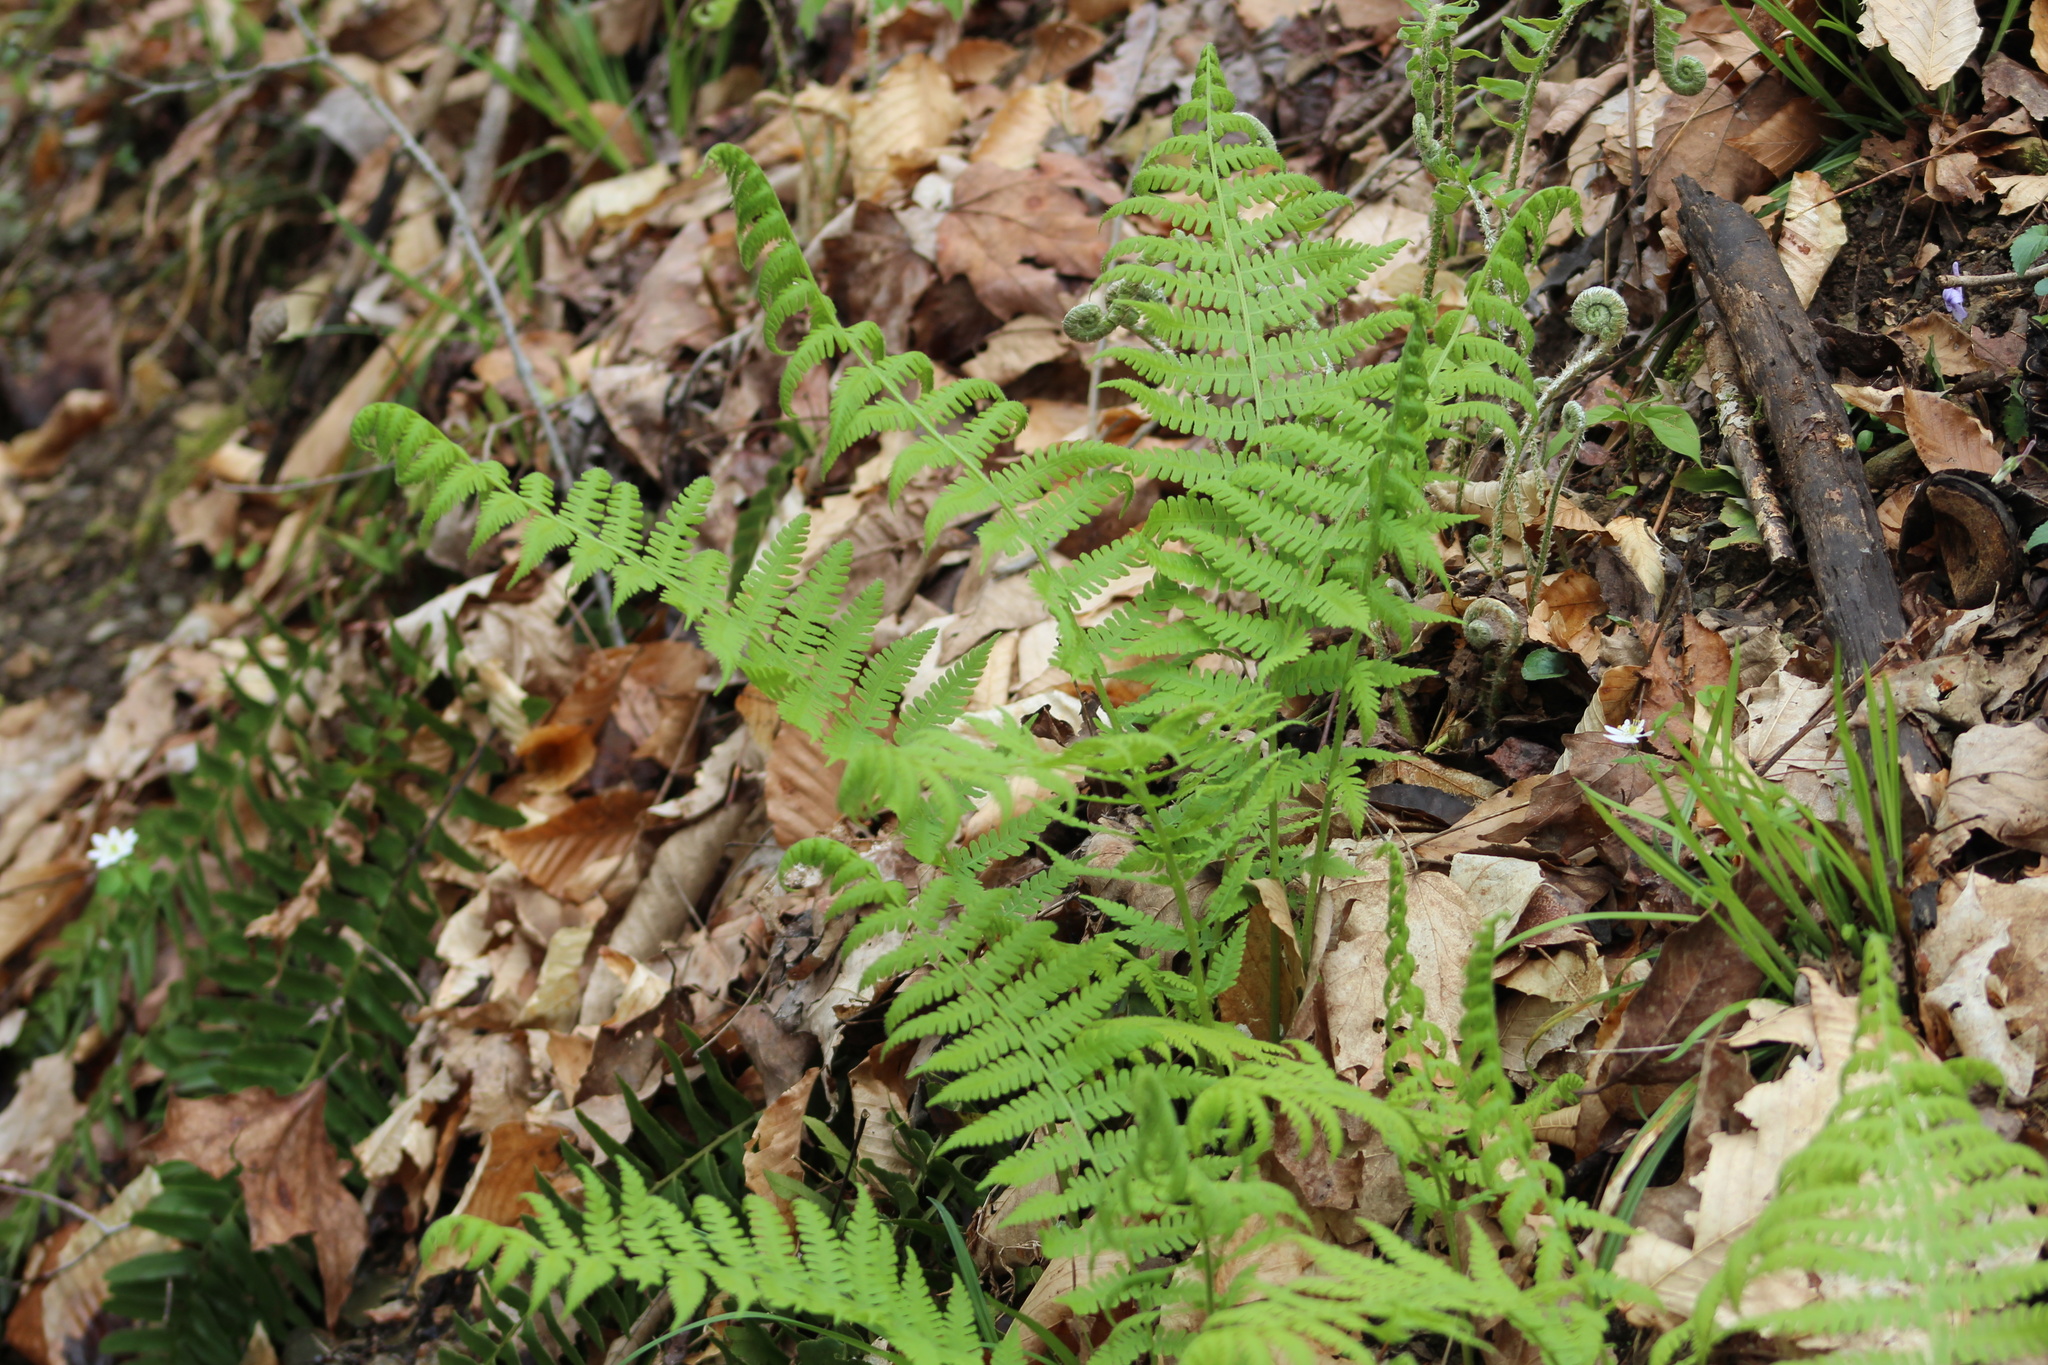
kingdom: Plantae
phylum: Tracheophyta
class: Polypodiopsida
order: Polypodiales
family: Athyriaceae
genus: Deparia
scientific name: Deparia acrostichoides
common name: Silver false spleenwort
